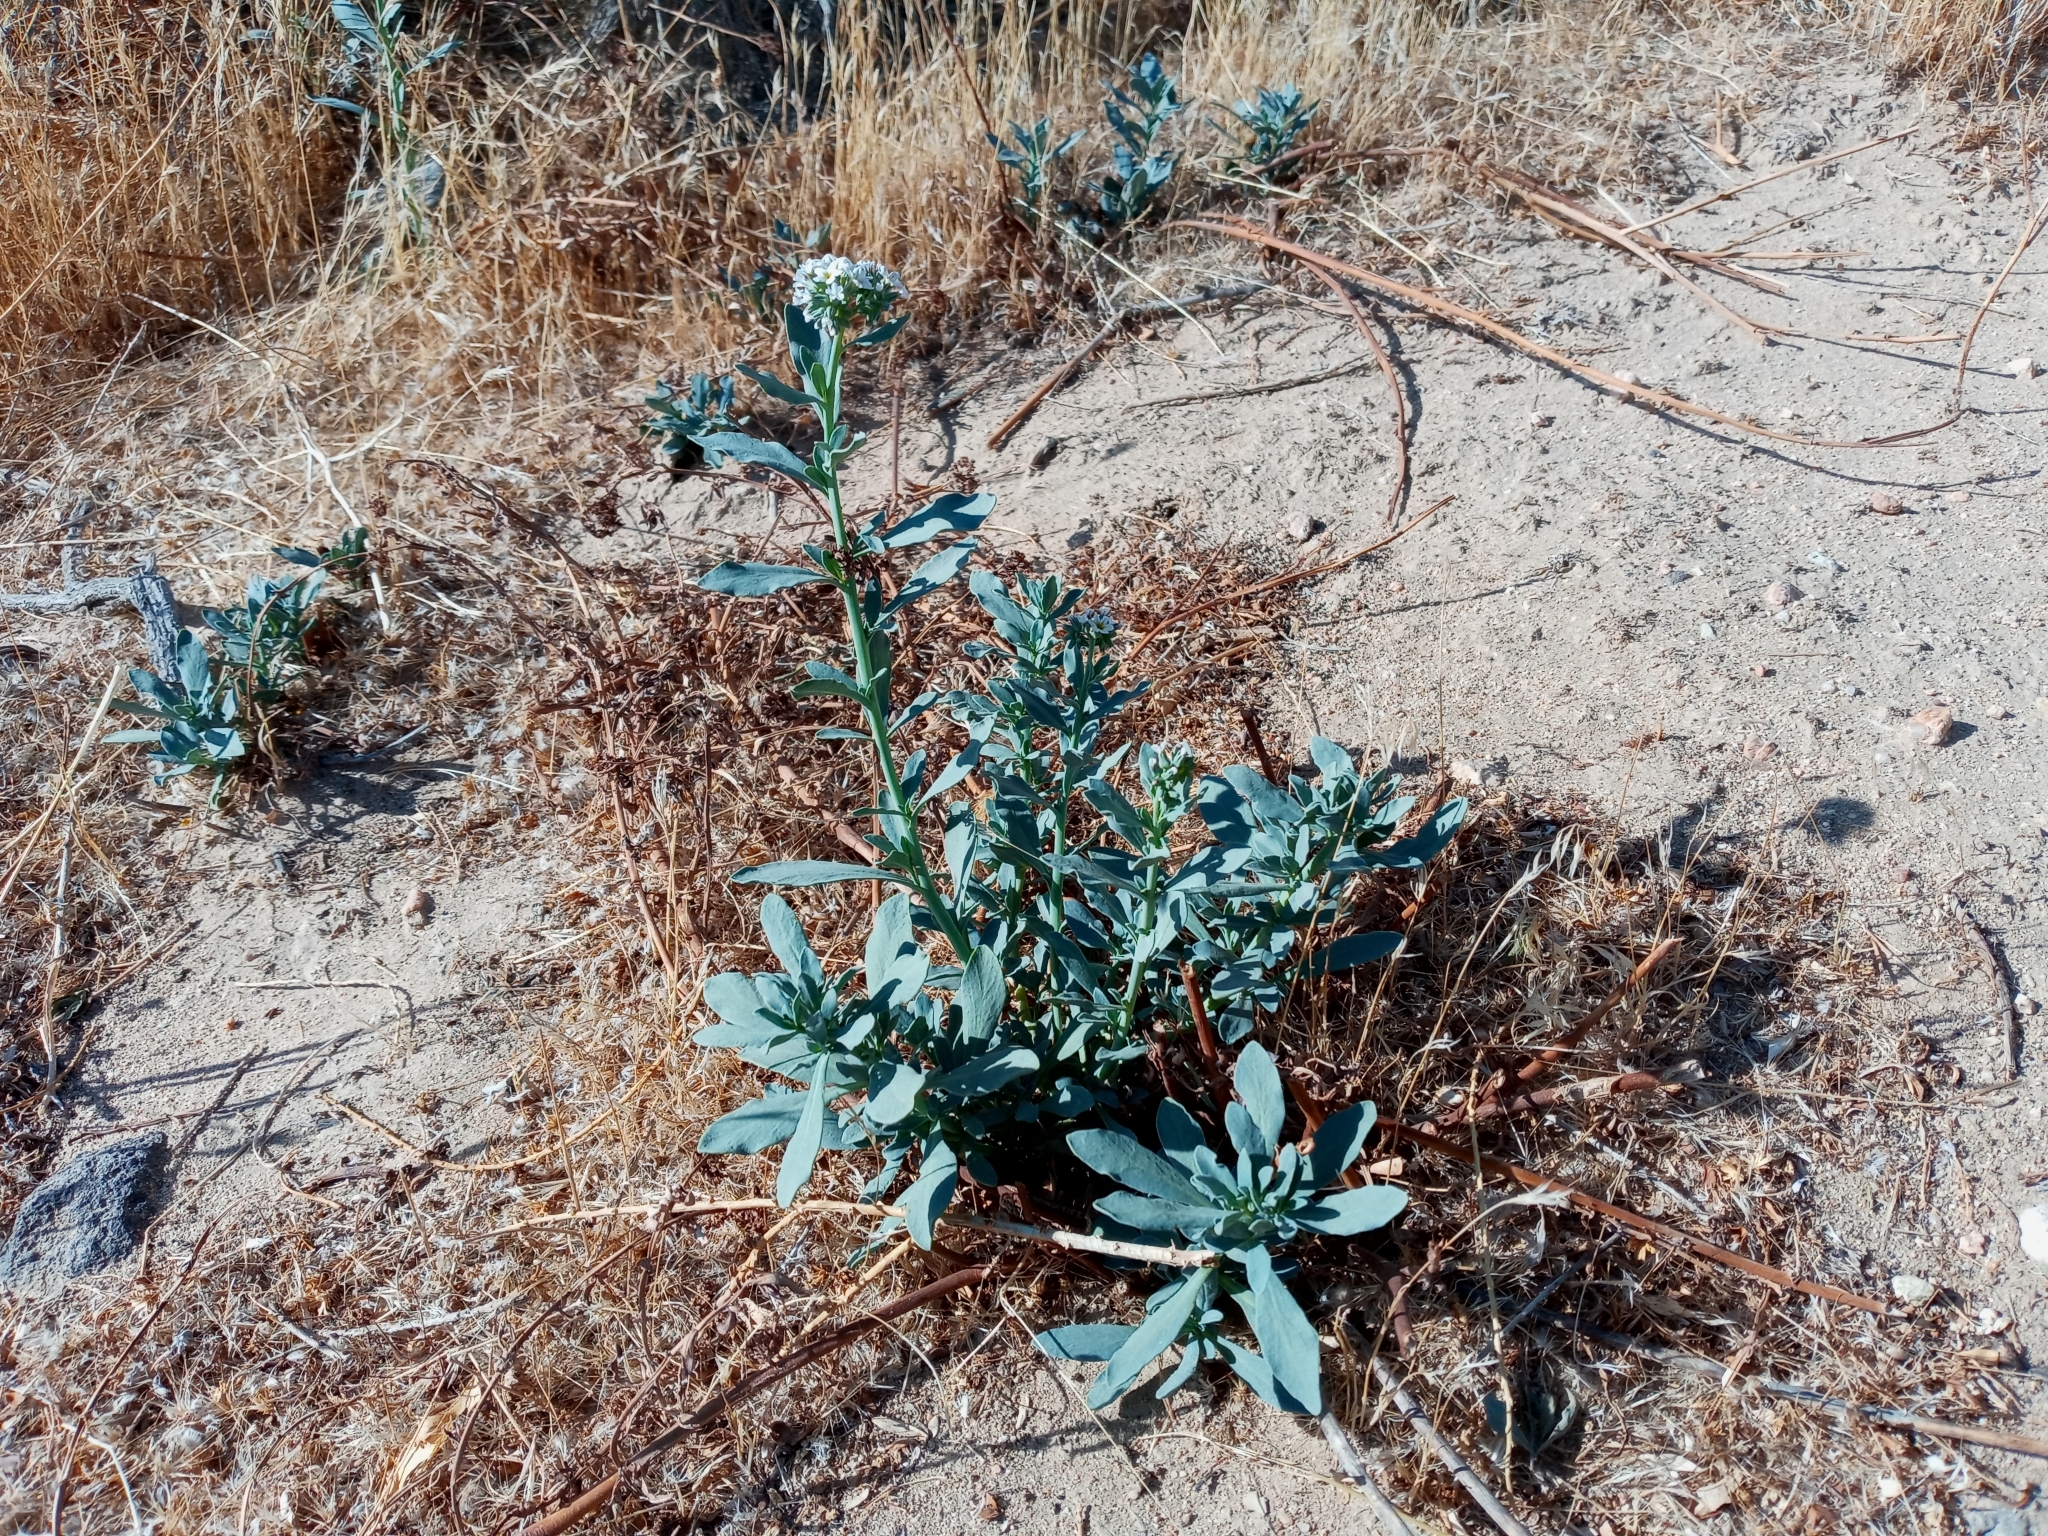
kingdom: Plantae
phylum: Tracheophyta
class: Magnoliopsida
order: Boraginales
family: Heliotropiaceae
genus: Heliotropium
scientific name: Heliotropium curassavicum
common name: Seaside heliotrope
